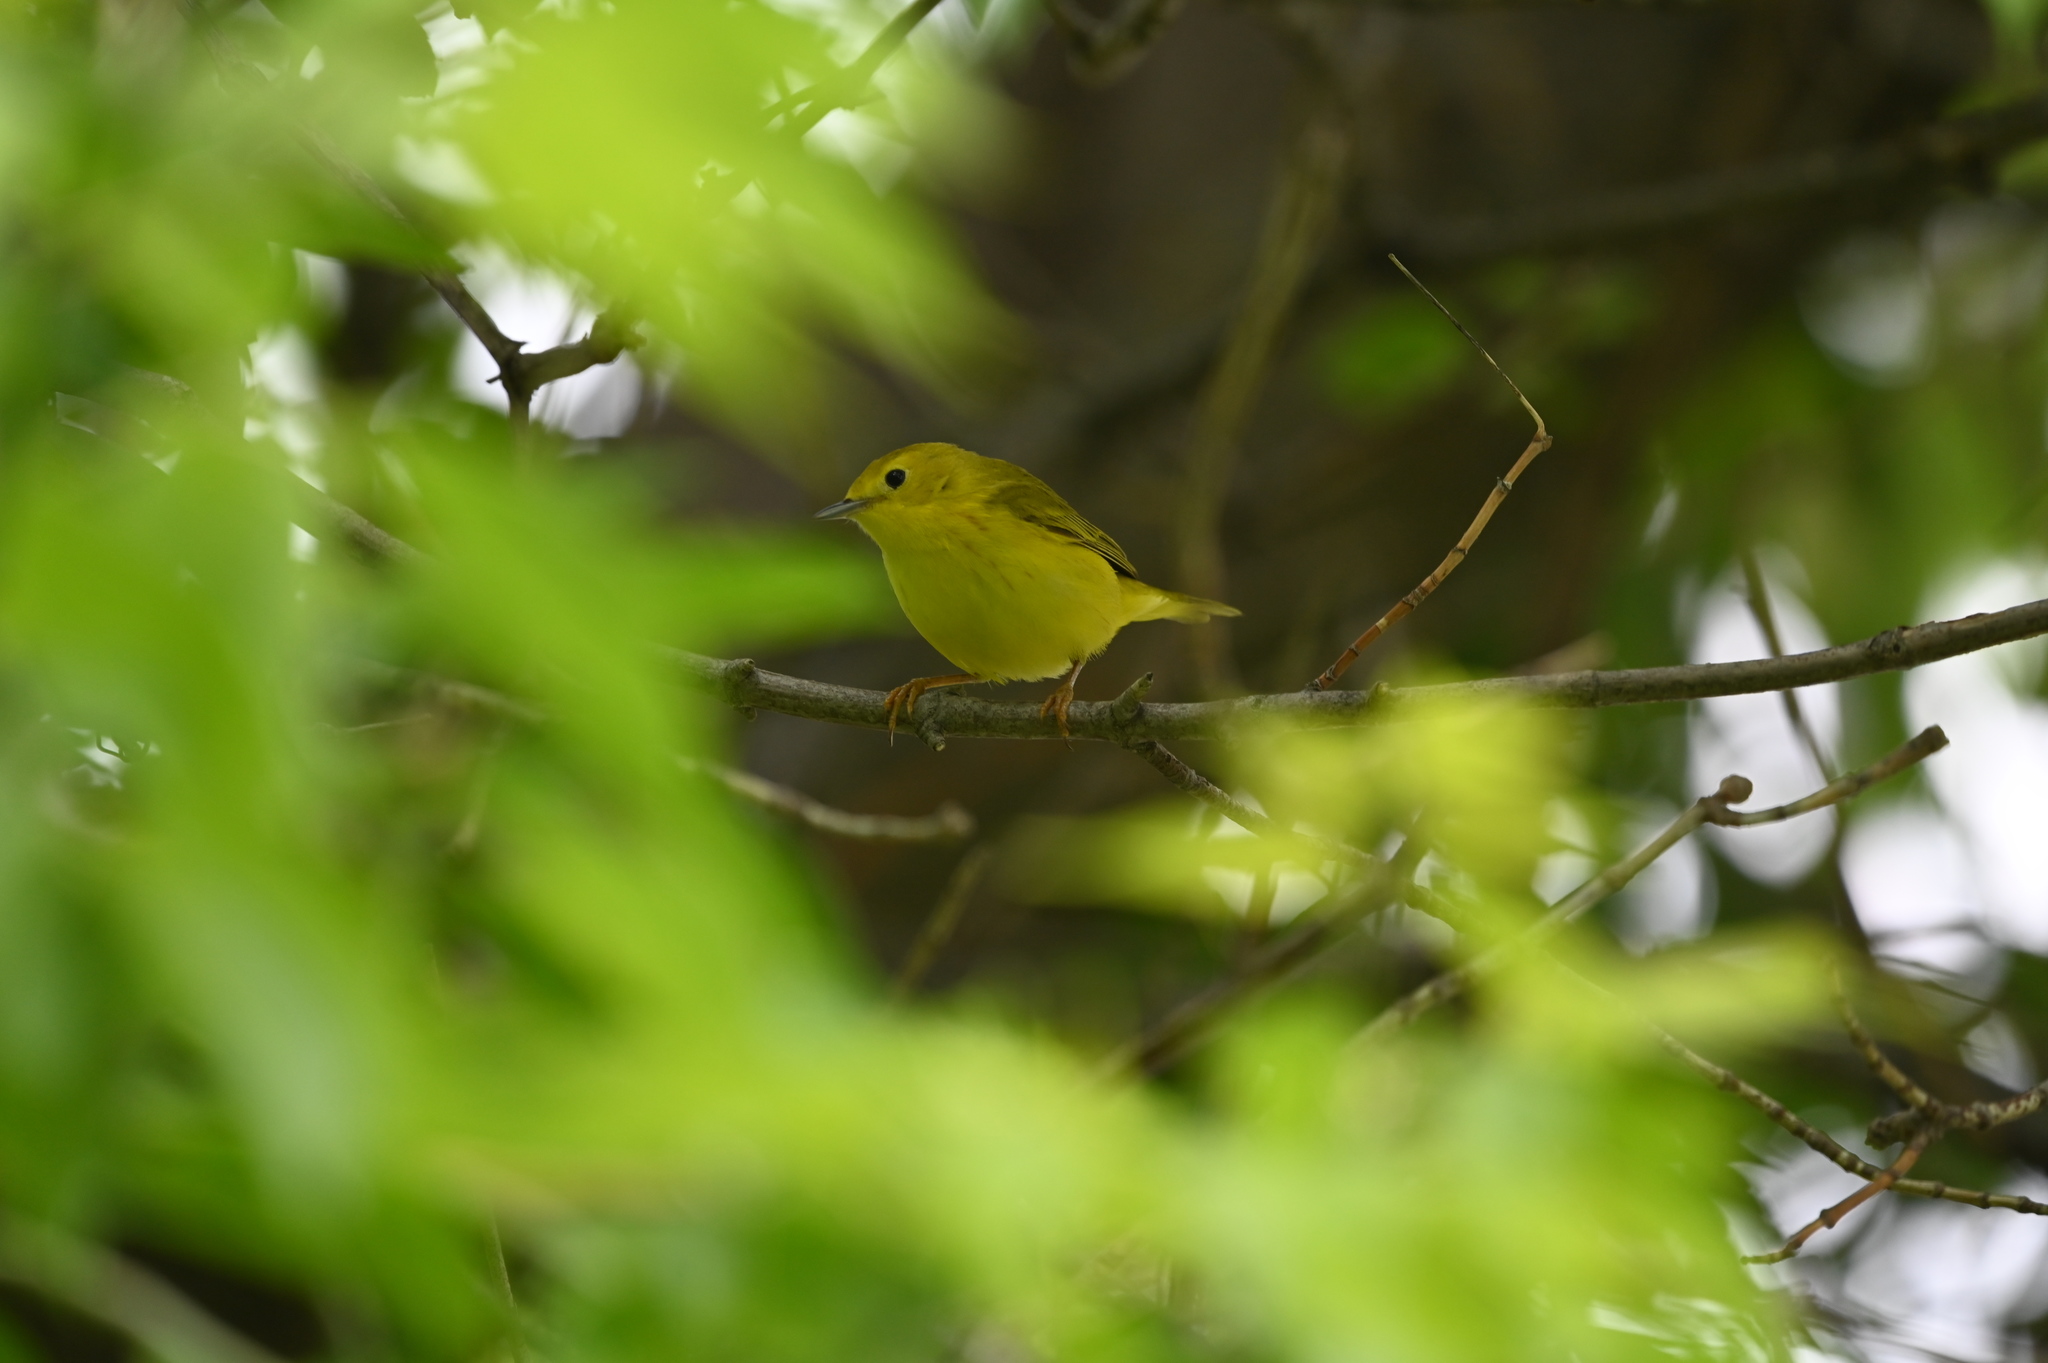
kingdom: Animalia
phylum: Chordata
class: Aves
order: Passeriformes
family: Parulidae
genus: Setophaga
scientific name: Setophaga petechia
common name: Yellow warbler
